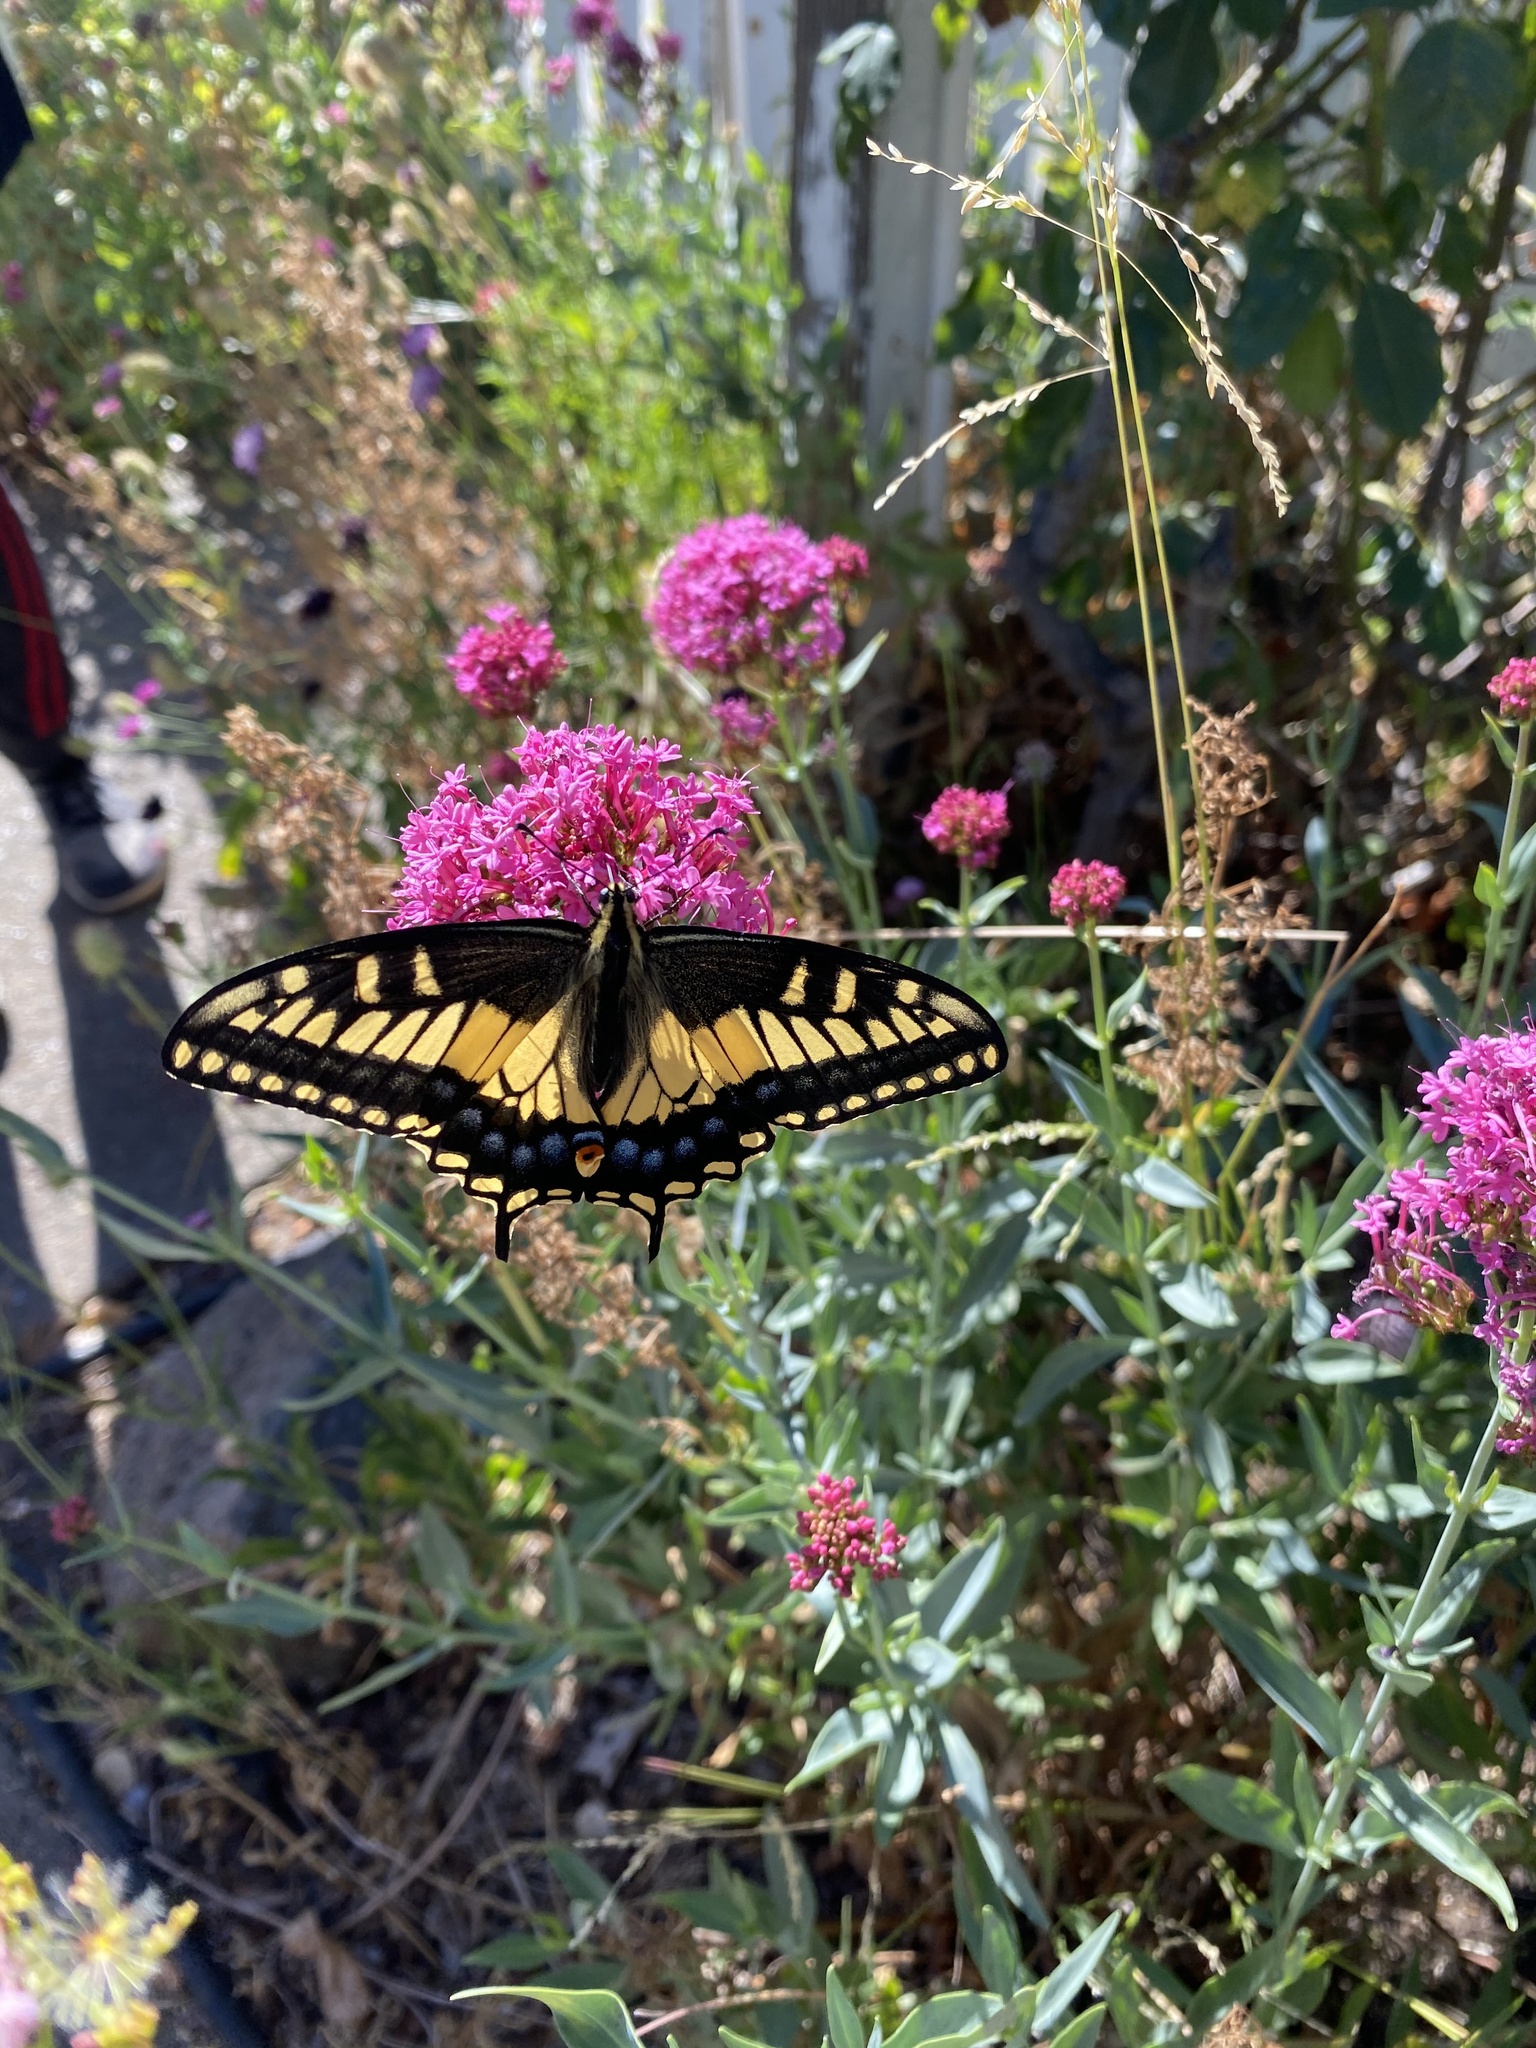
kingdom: Animalia
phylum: Arthropoda
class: Insecta
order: Lepidoptera
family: Papilionidae
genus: Papilio
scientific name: Papilio zelicaon
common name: Anise swallowtail
